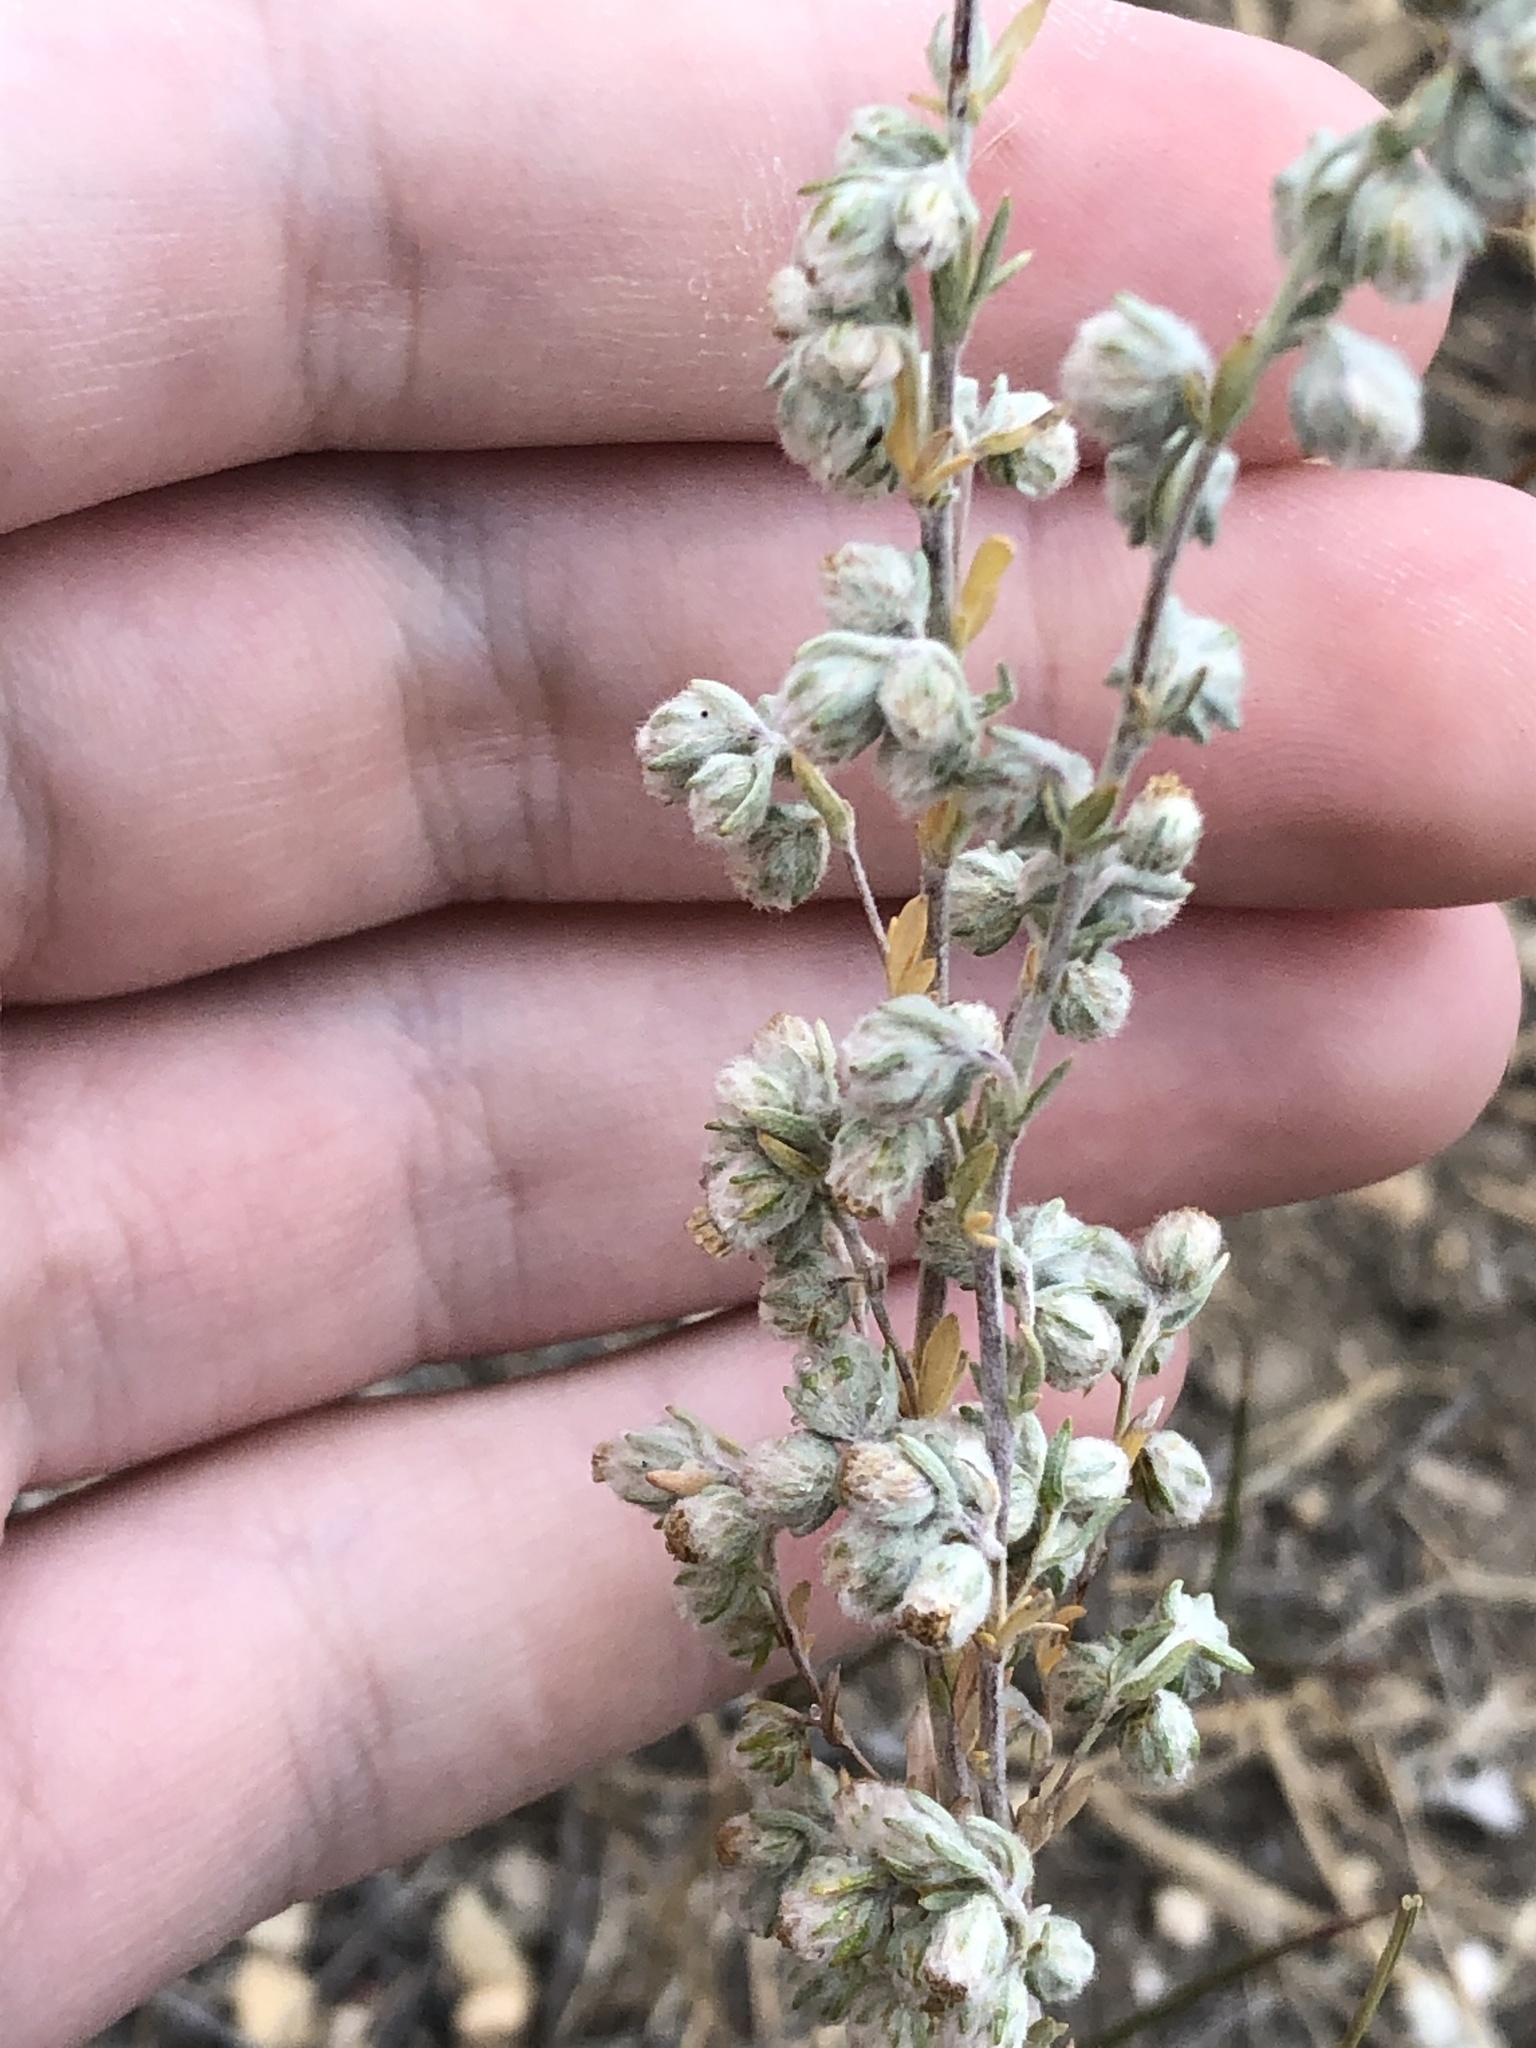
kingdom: Plantae
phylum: Tracheophyta
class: Magnoliopsida
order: Asterales
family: Asteraceae
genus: Artemisia
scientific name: Artemisia frigida
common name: Prairie sagewort
